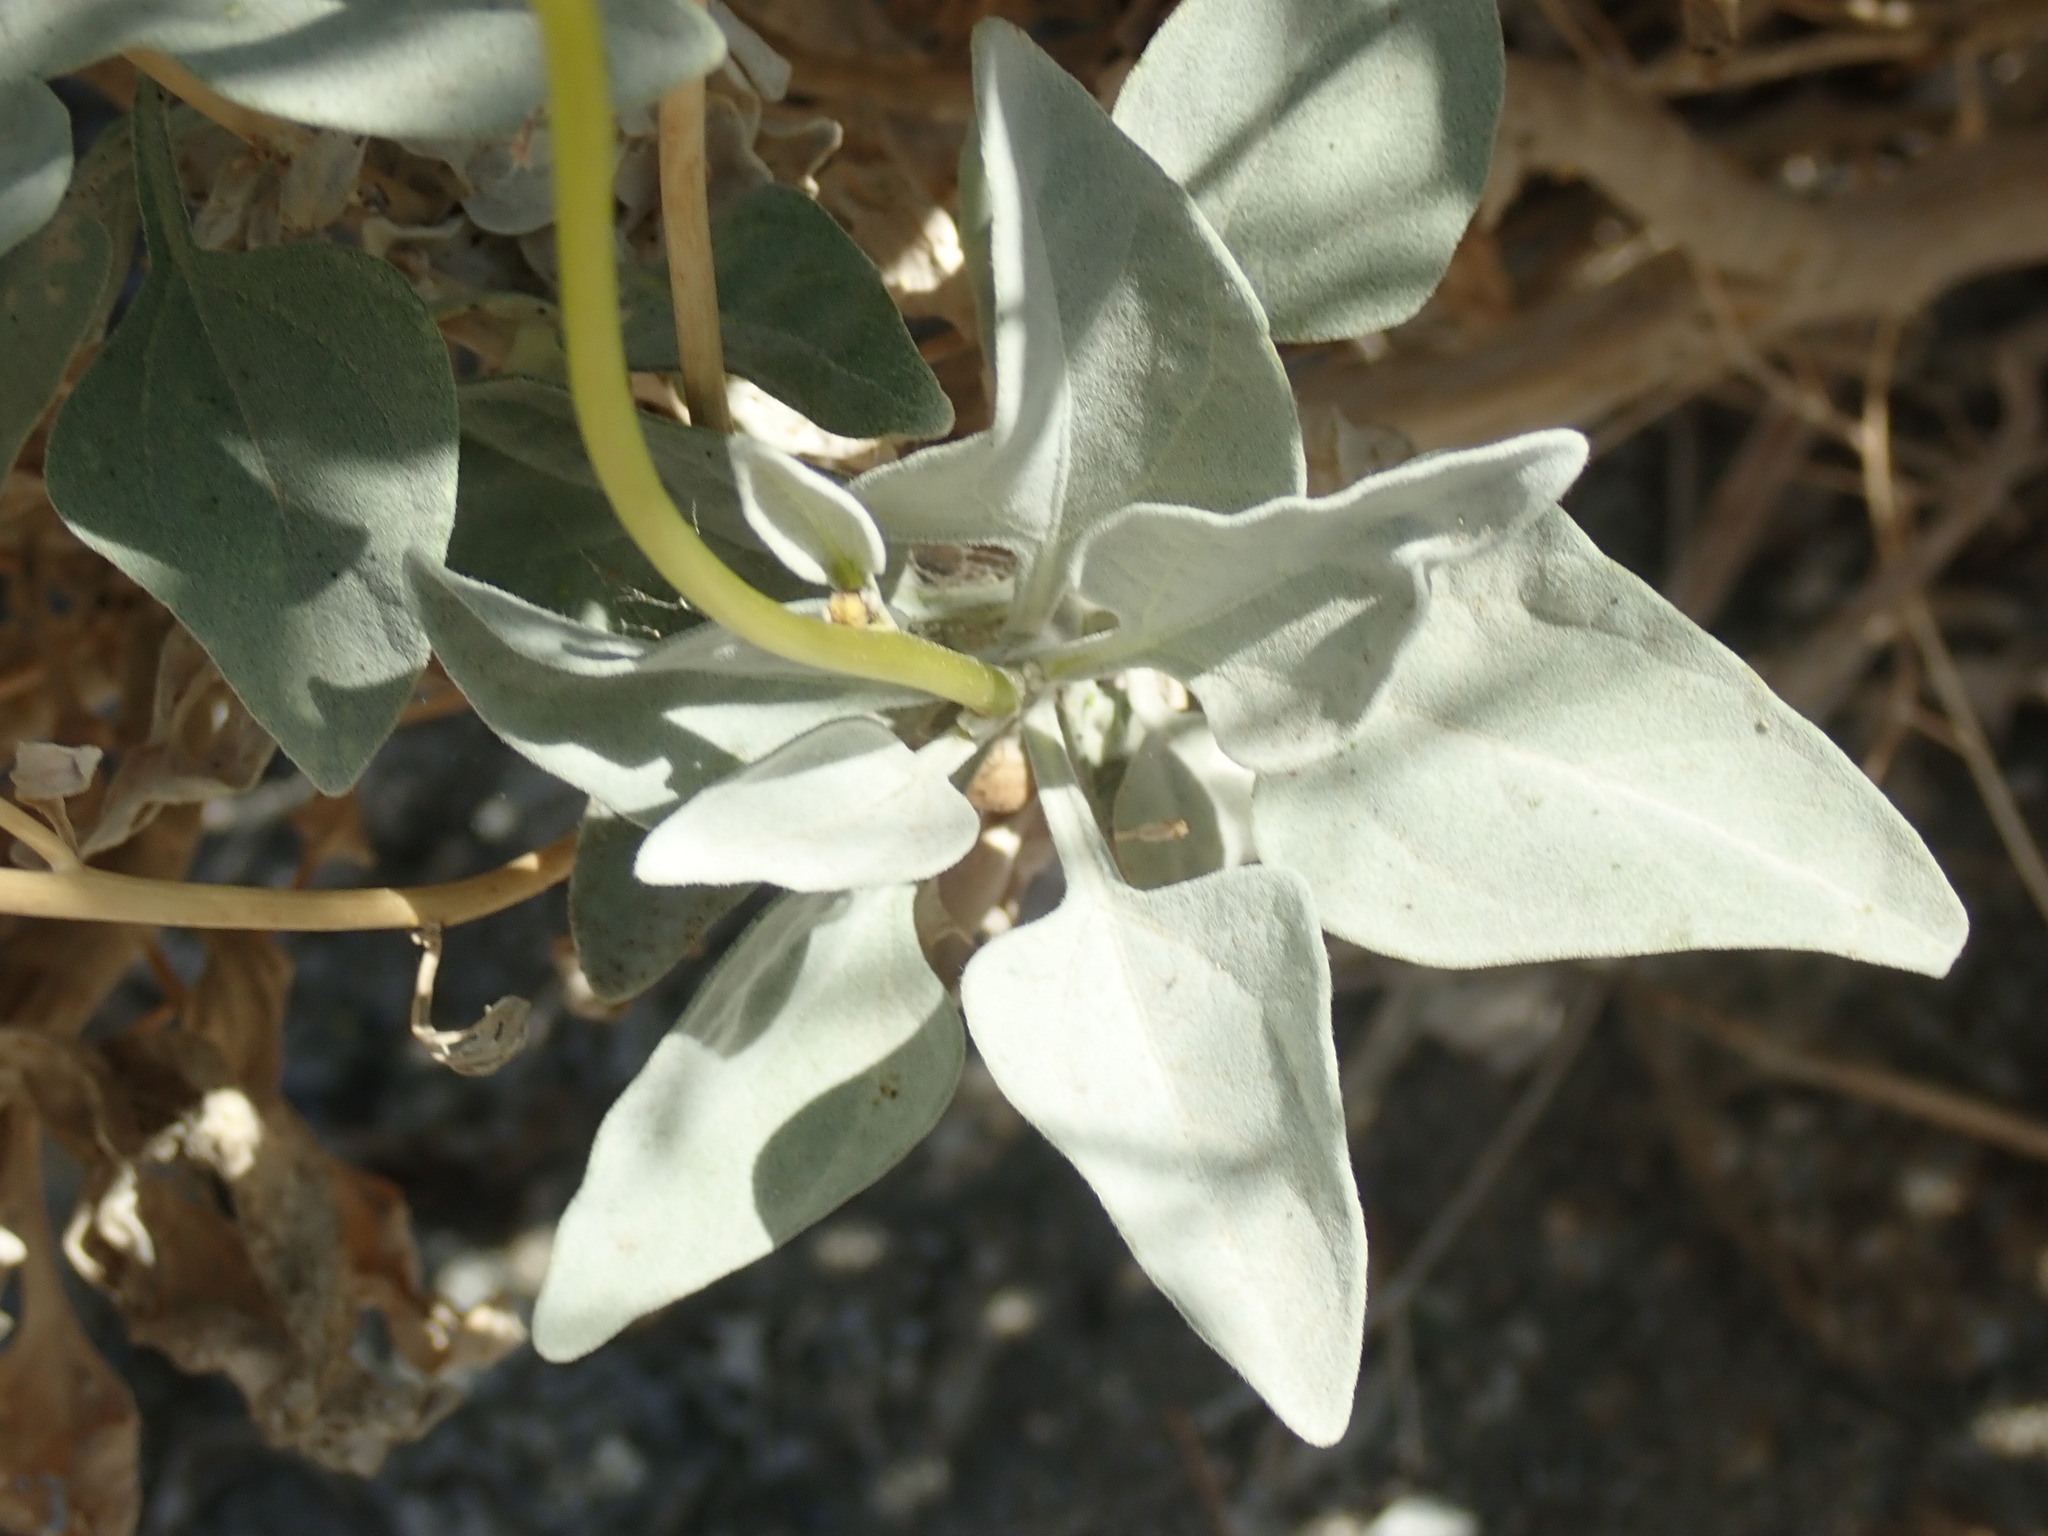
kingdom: Plantae
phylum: Tracheophyta
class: Magnoliopsida
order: Asterales
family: Asteraceae
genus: Encelia
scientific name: Encelia farinosa
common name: Brittlebush
